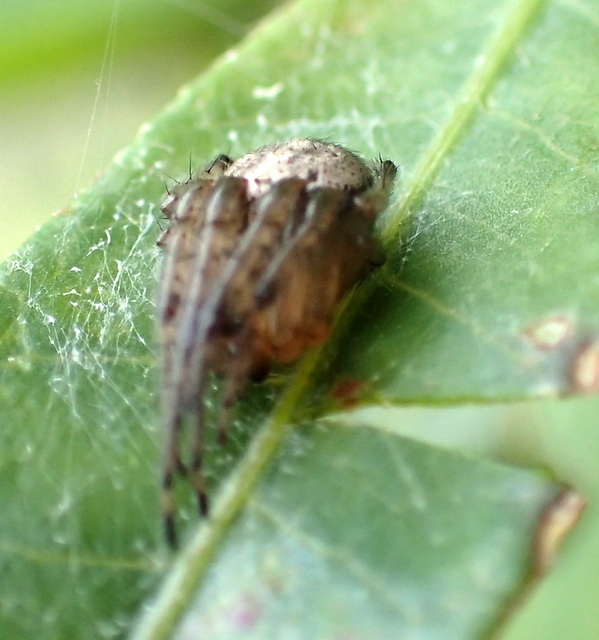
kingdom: Animalia
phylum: Arthropoda
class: Arachnida
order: Araneae
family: Araneidae
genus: Metazygia
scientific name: Metazygia zilloides
